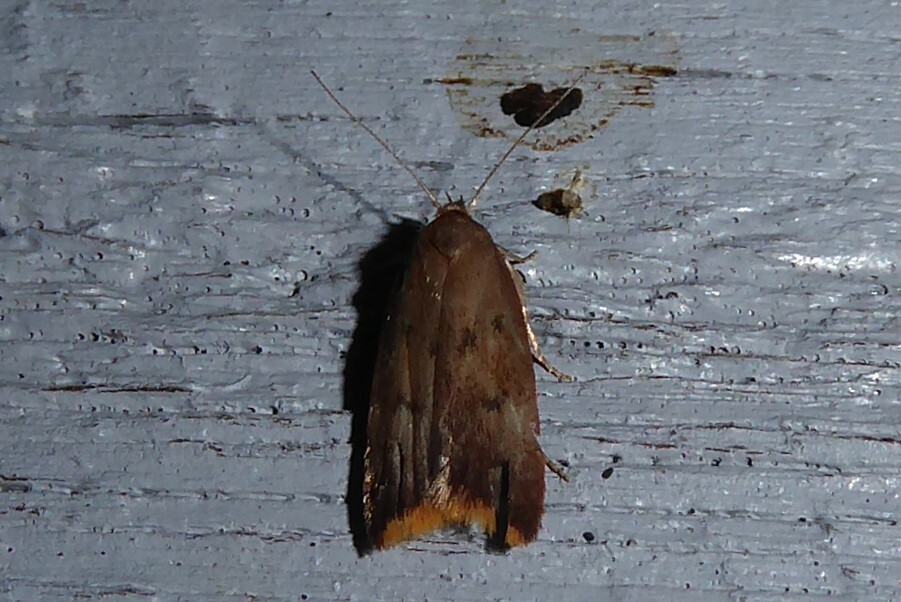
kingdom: Animalia
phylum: Arthropoda
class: Insecta
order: Lepidoptera
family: Oecophoridae
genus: Tachystola
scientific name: Tachystola acroxantha
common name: Ruddy streak
